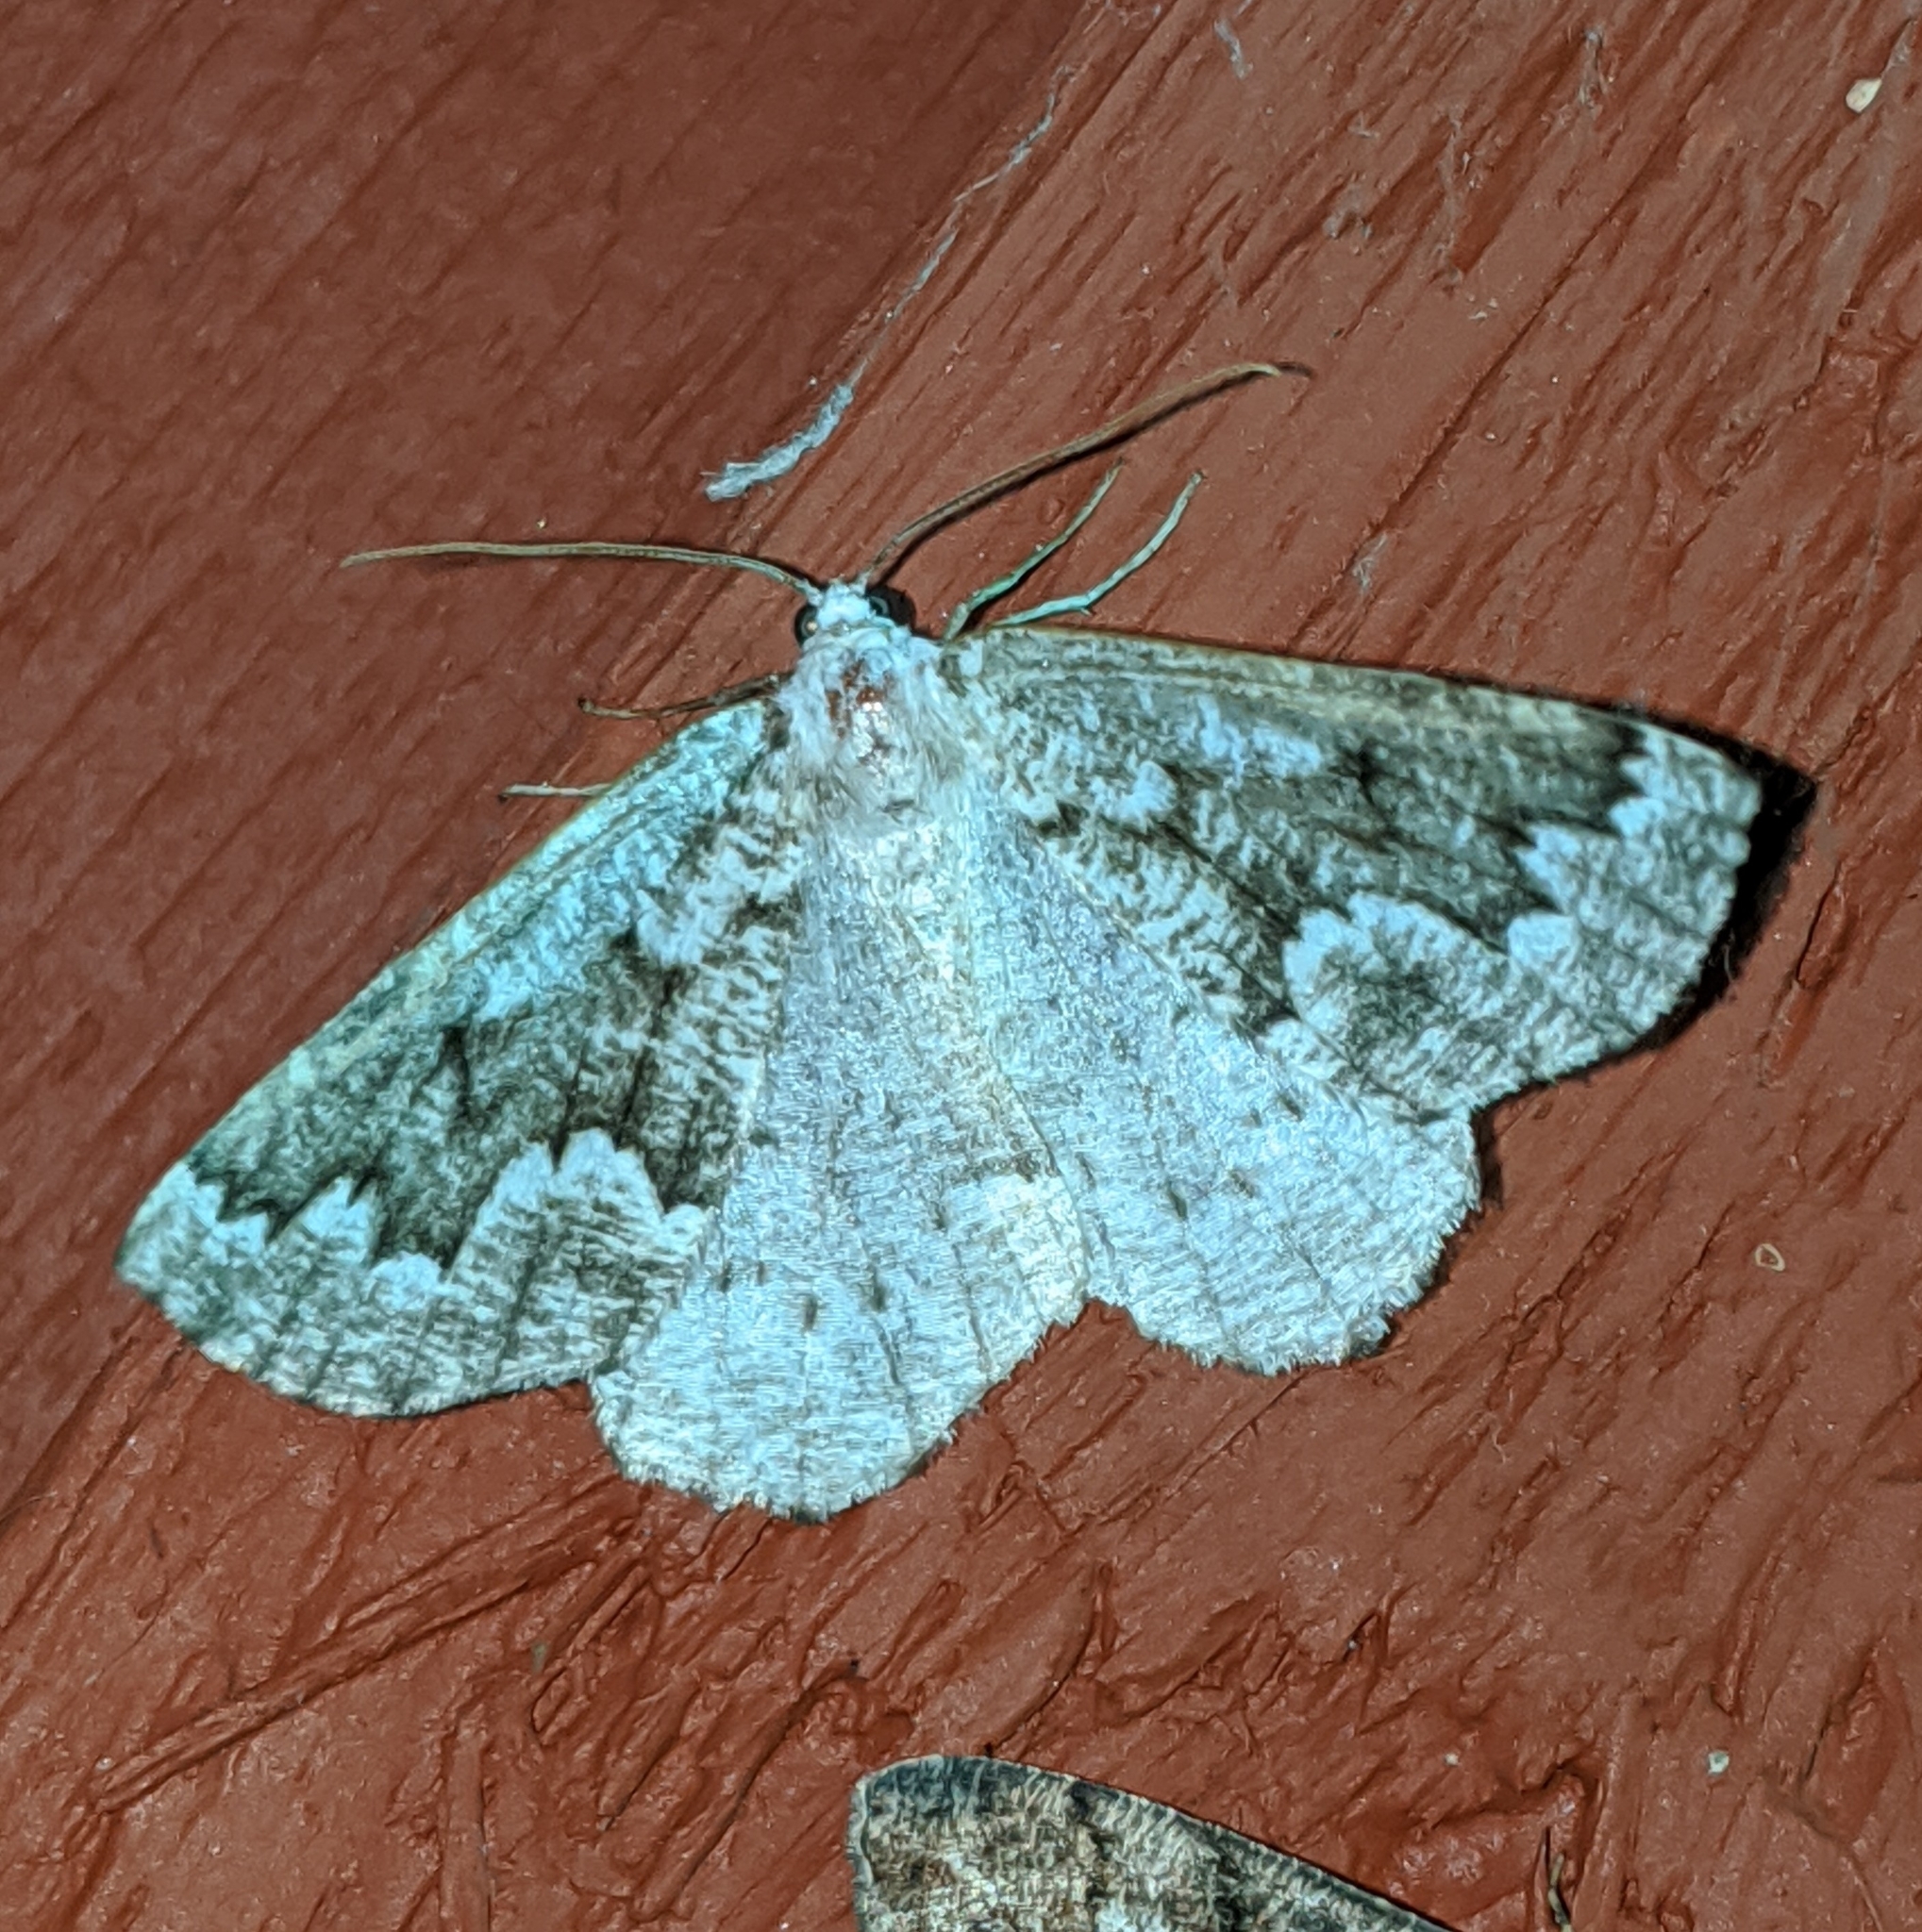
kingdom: Animalia
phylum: Arthropoda
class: Insecta
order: Lepidoptera
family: Geometridae
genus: Sabulodes
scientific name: Sabulodes
